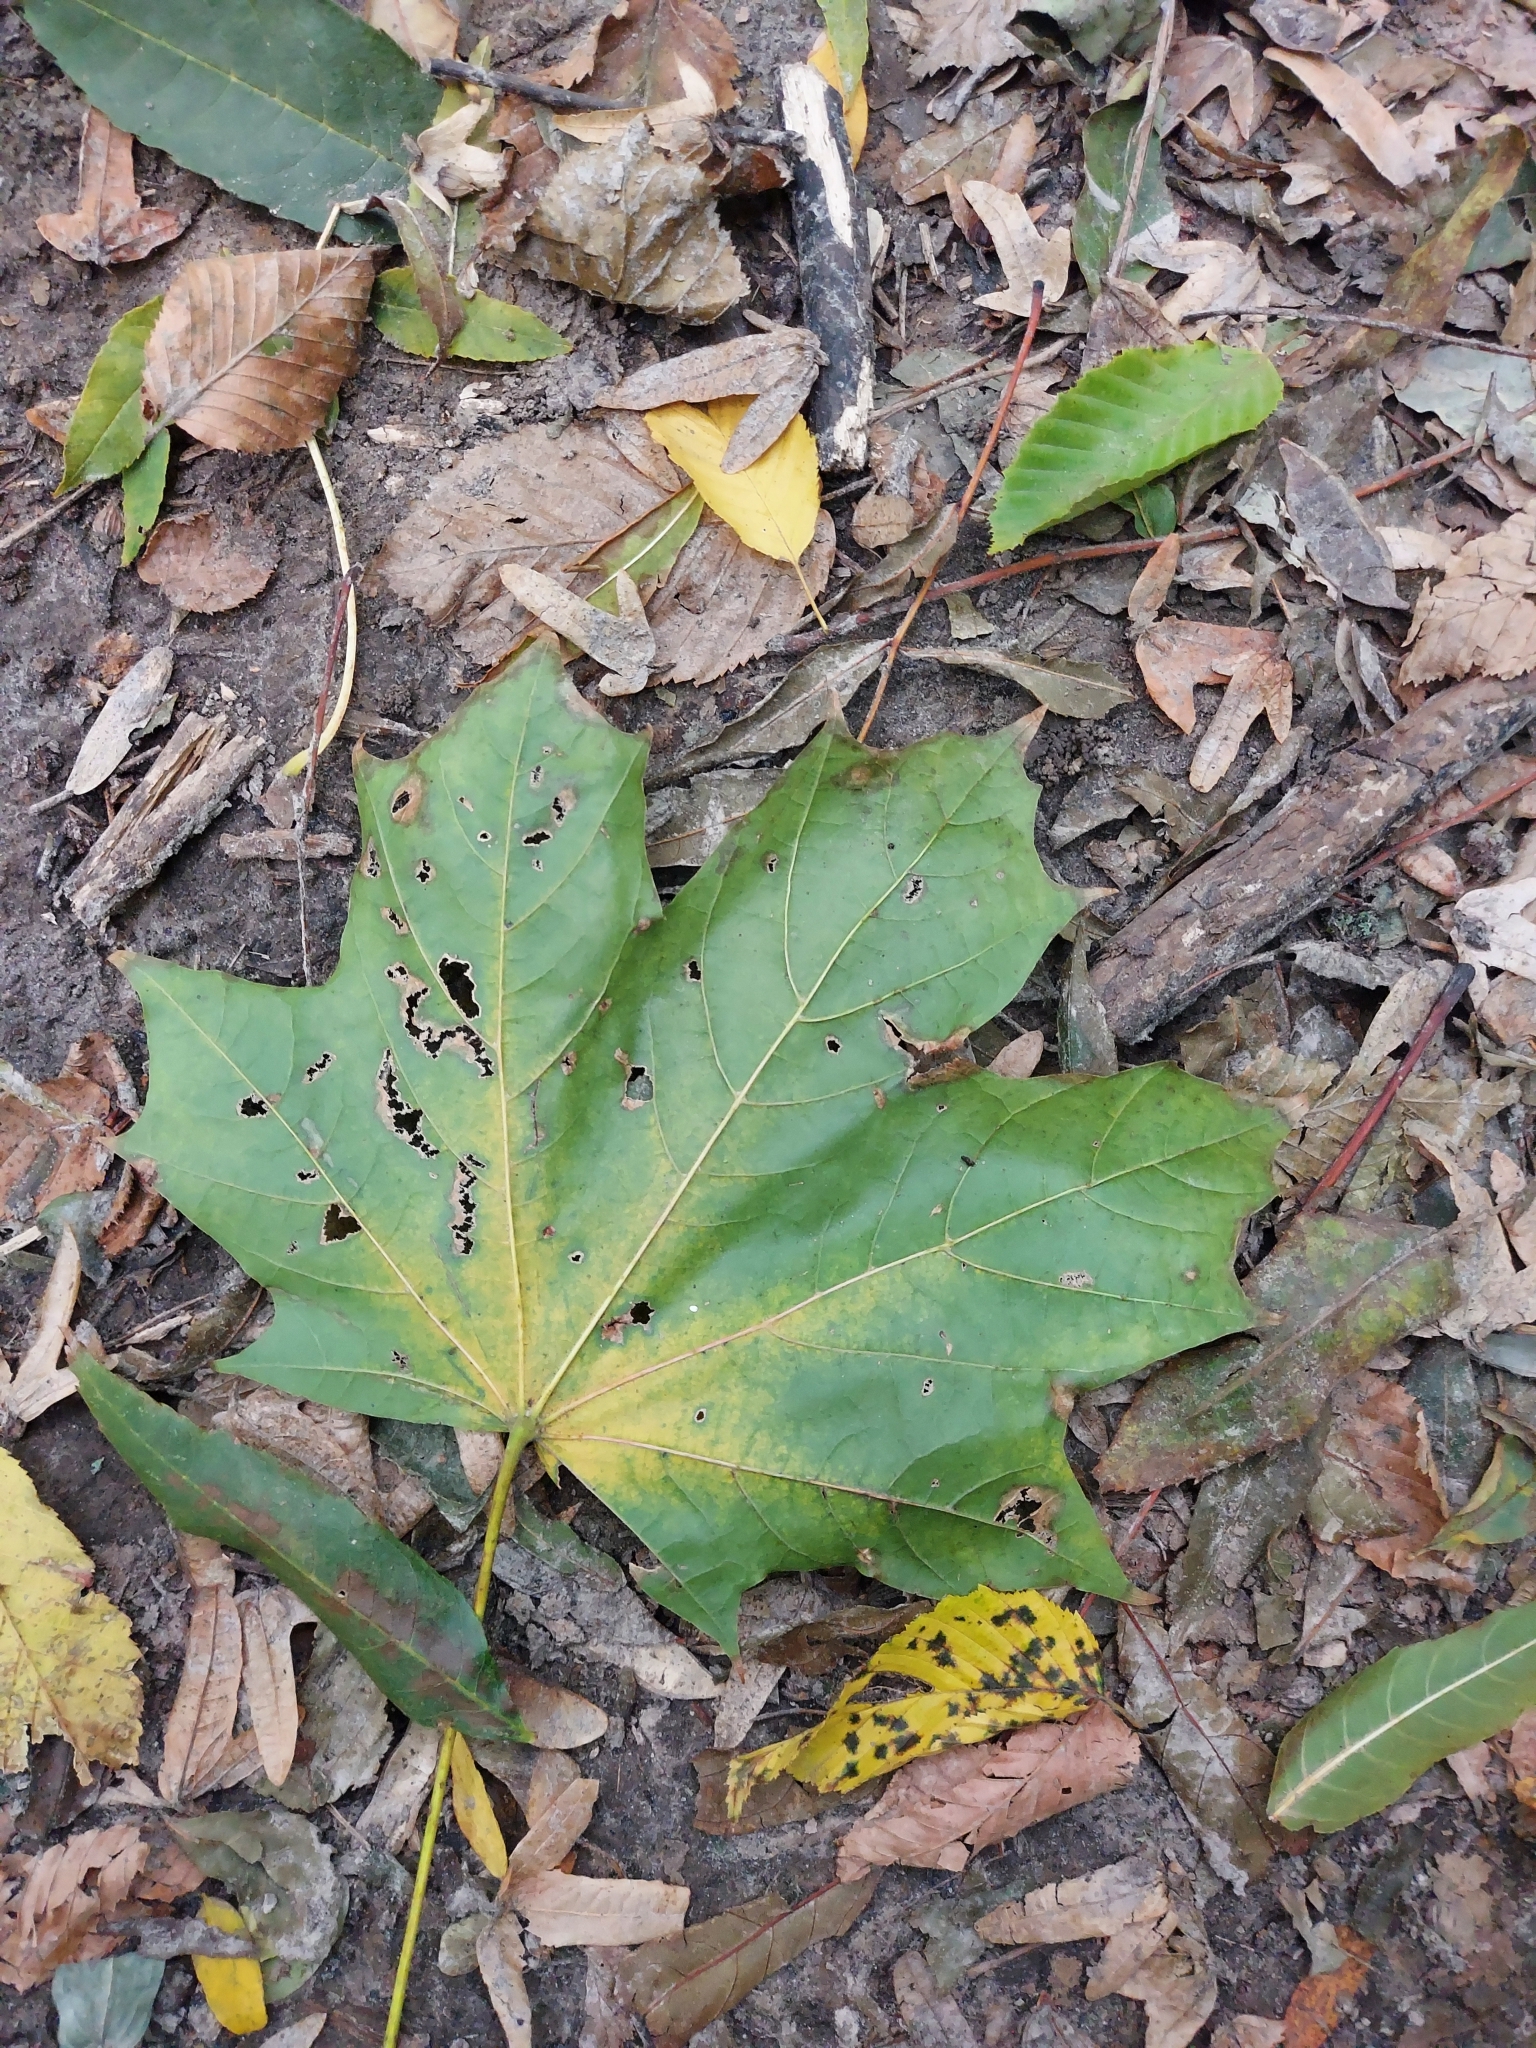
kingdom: Plantae
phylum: Tracheophyta
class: Magnoliopsida
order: Sapindales
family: Sapindaceae
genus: Acer
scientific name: Acer platanoides
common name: Norway maple
